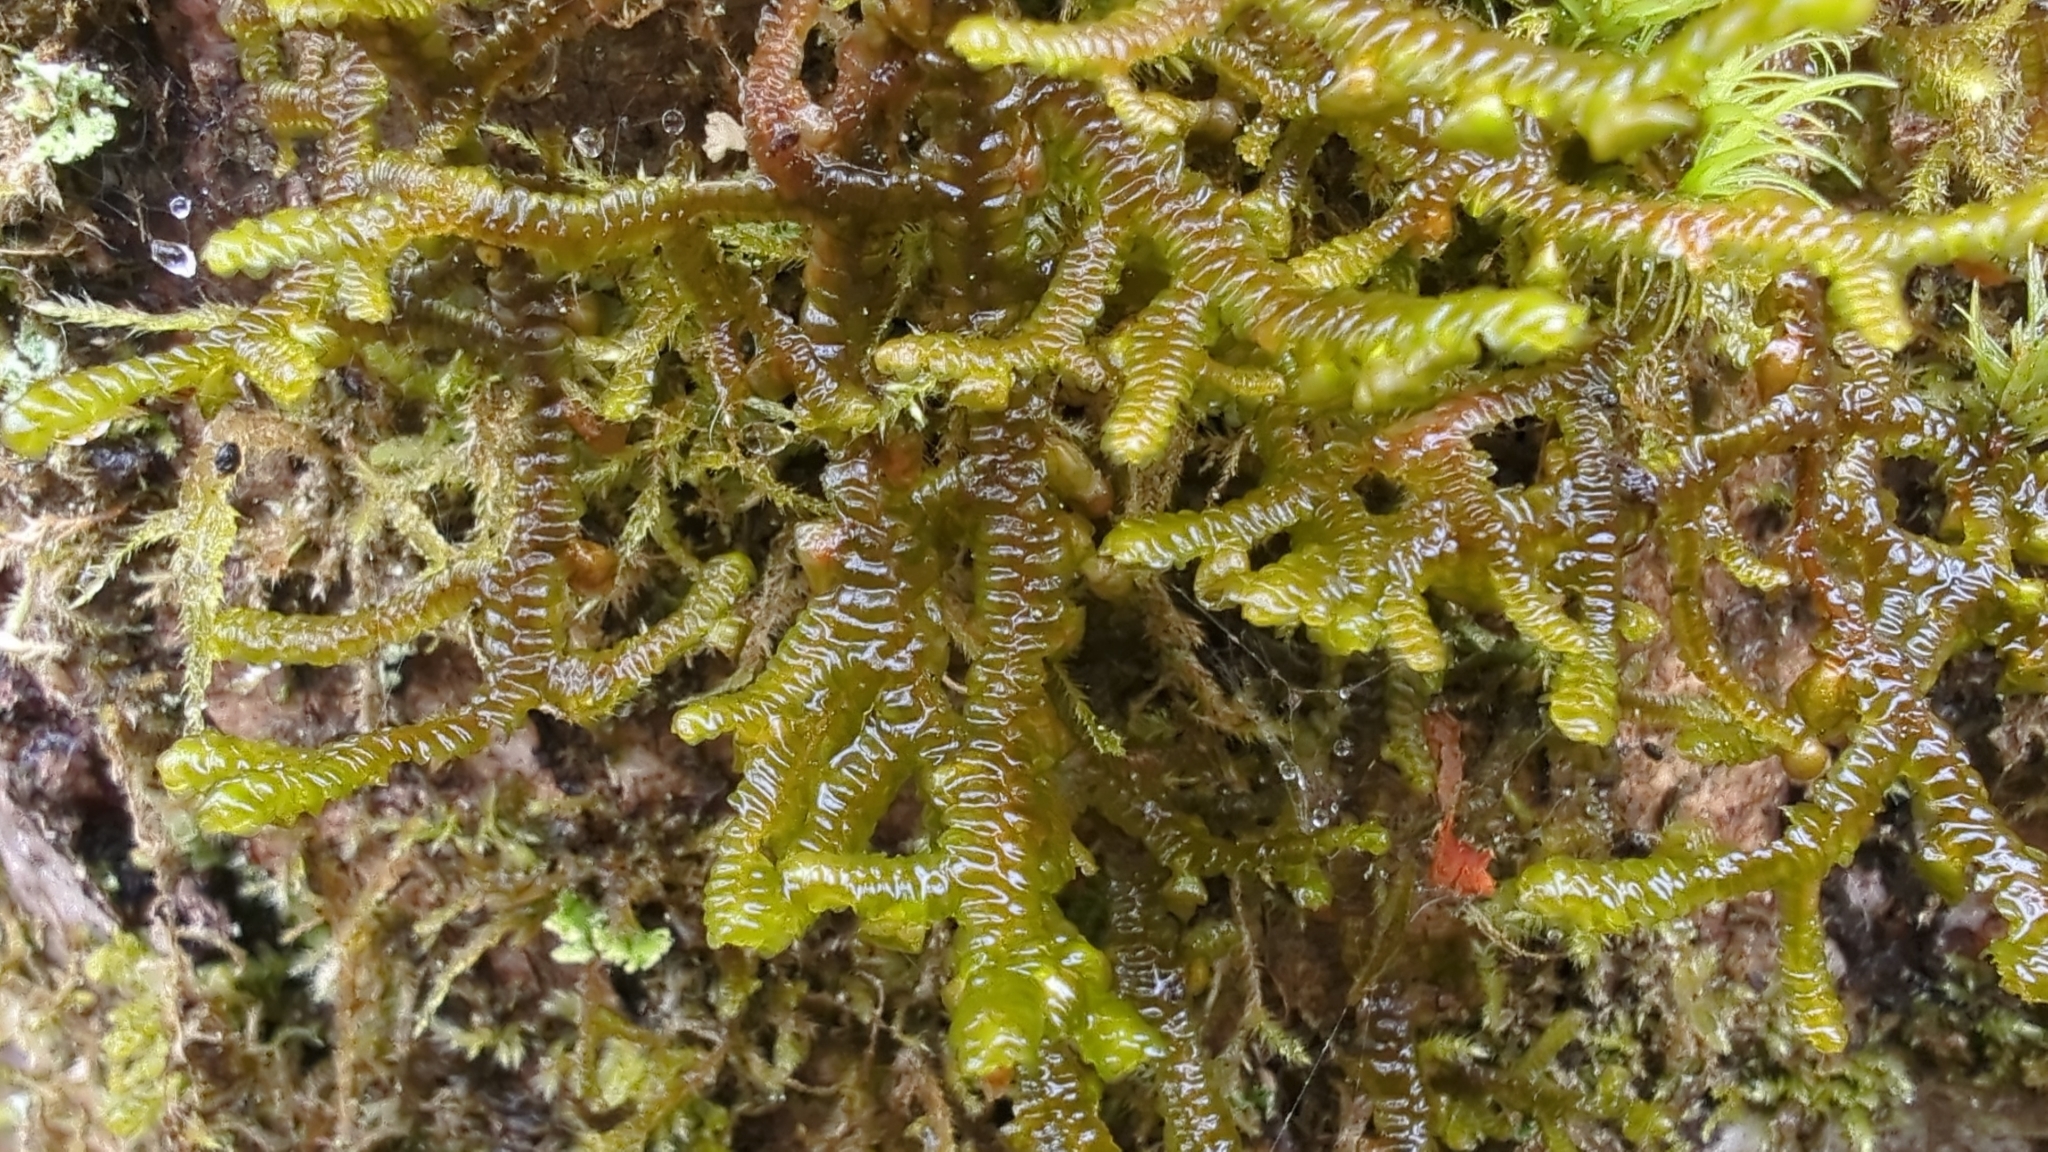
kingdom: Plantae
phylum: Marchantiophyta
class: Jungermanniopsida
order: Porellales
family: Porellaceae
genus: Porella
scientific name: Porella navicularis
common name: Tree ruffle liverwort
